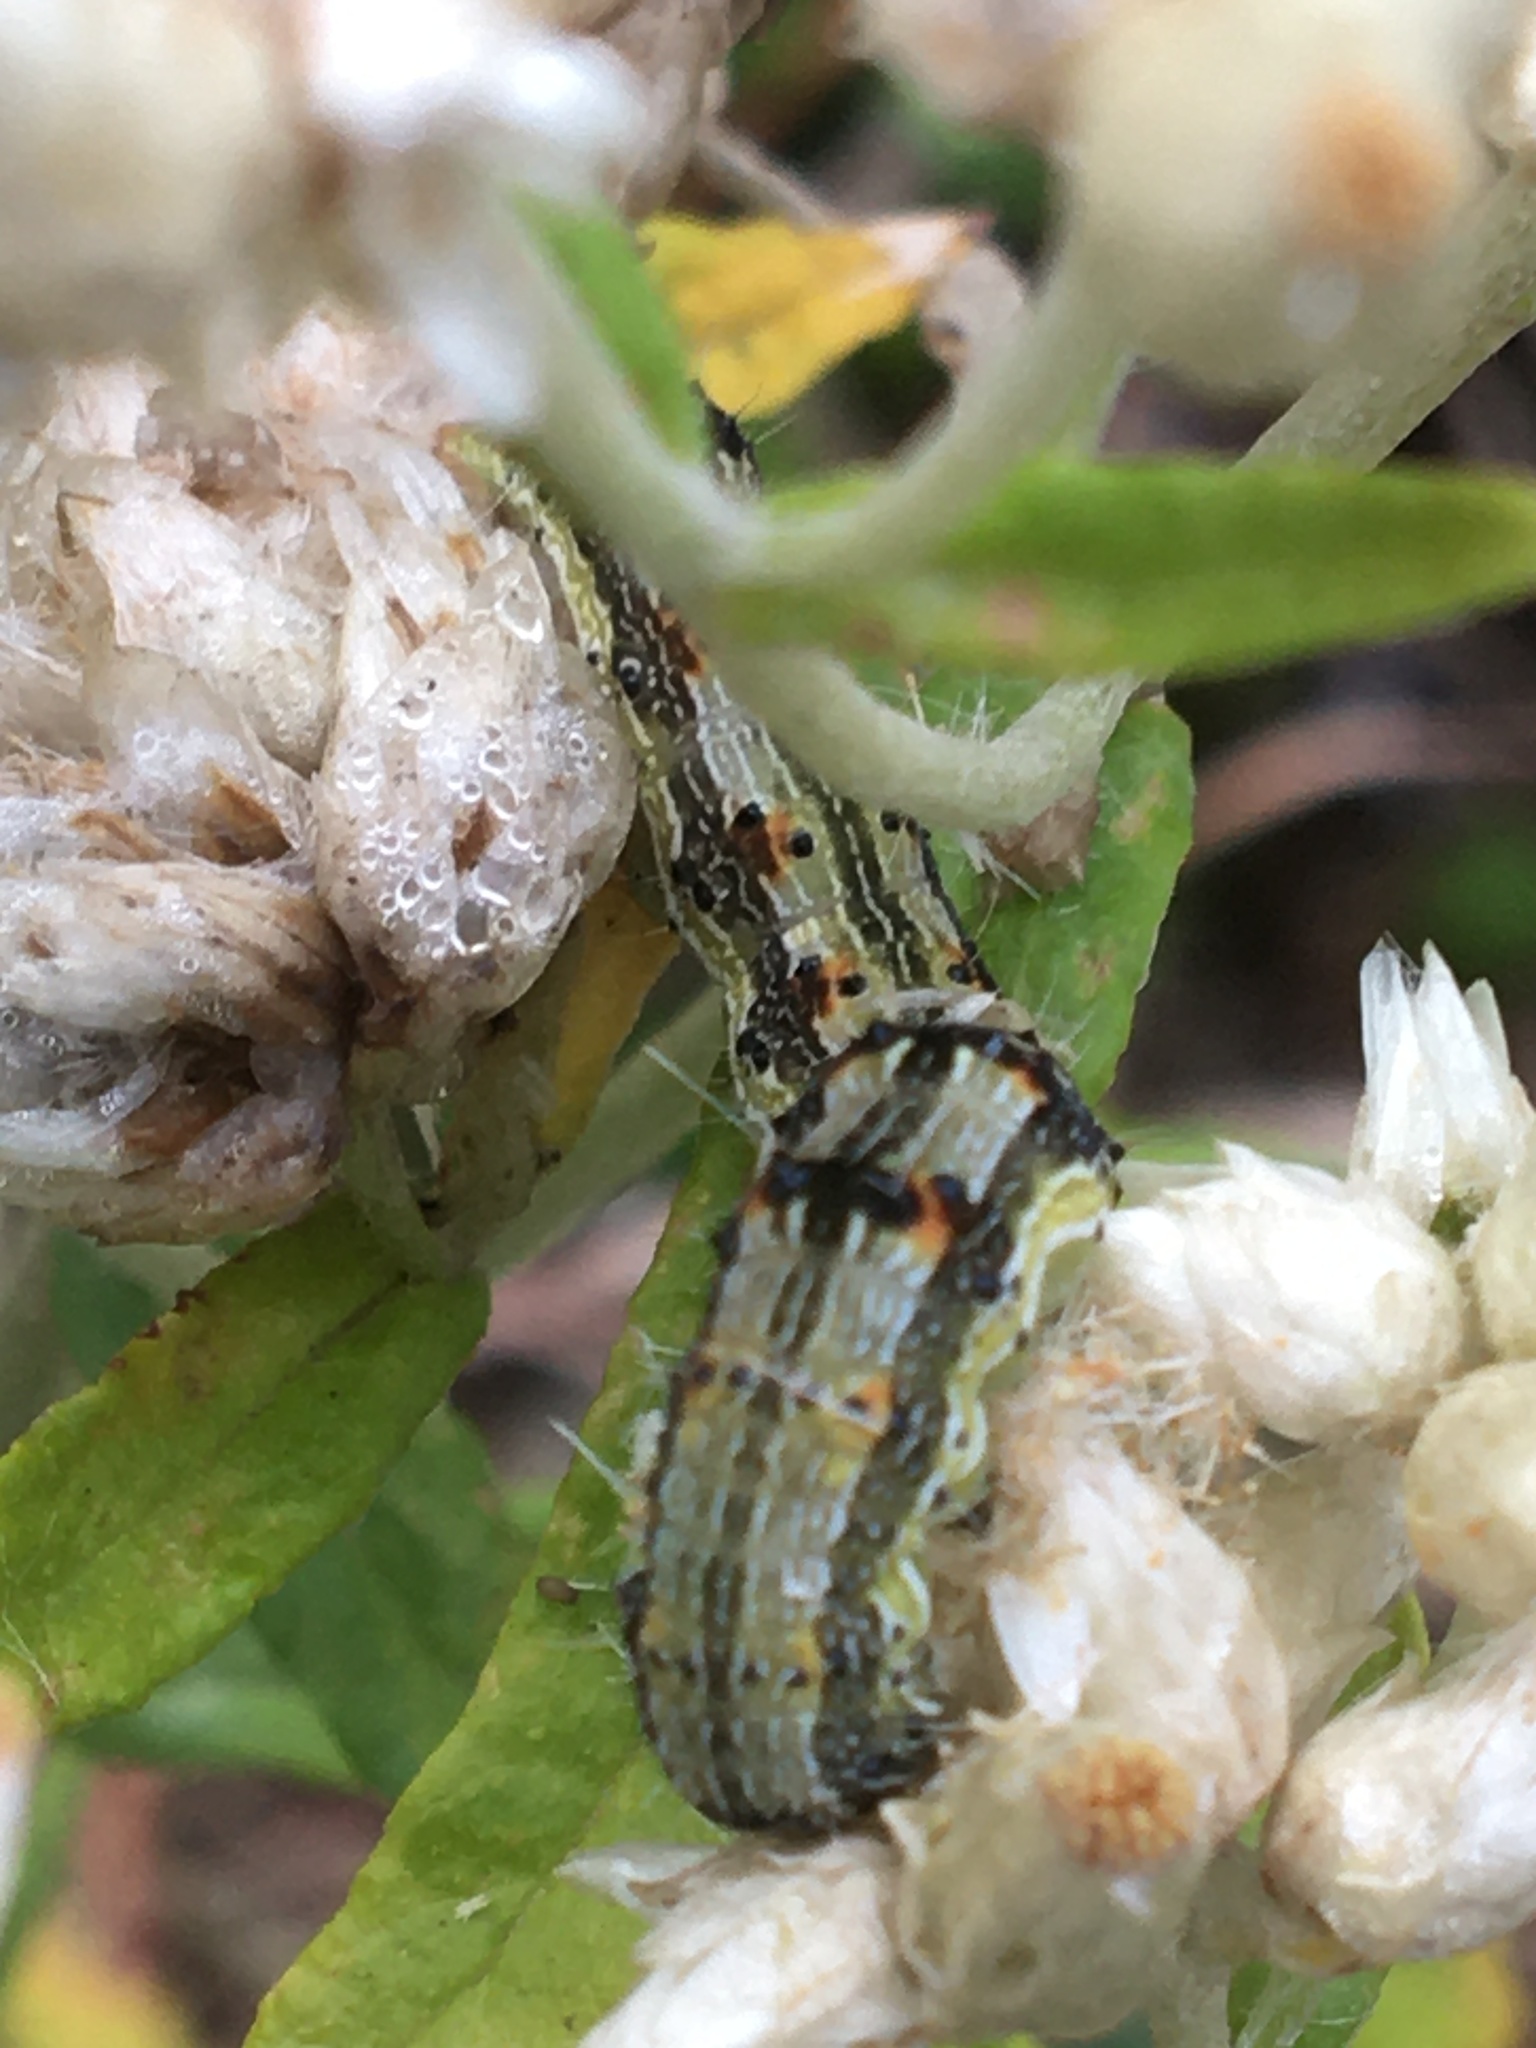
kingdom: Animalia
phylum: Arthropoda
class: Insecta
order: Lepidoptera
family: Noctuidae
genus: Chloridea
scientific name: Chloridea virescens
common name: Tobacco budworm
